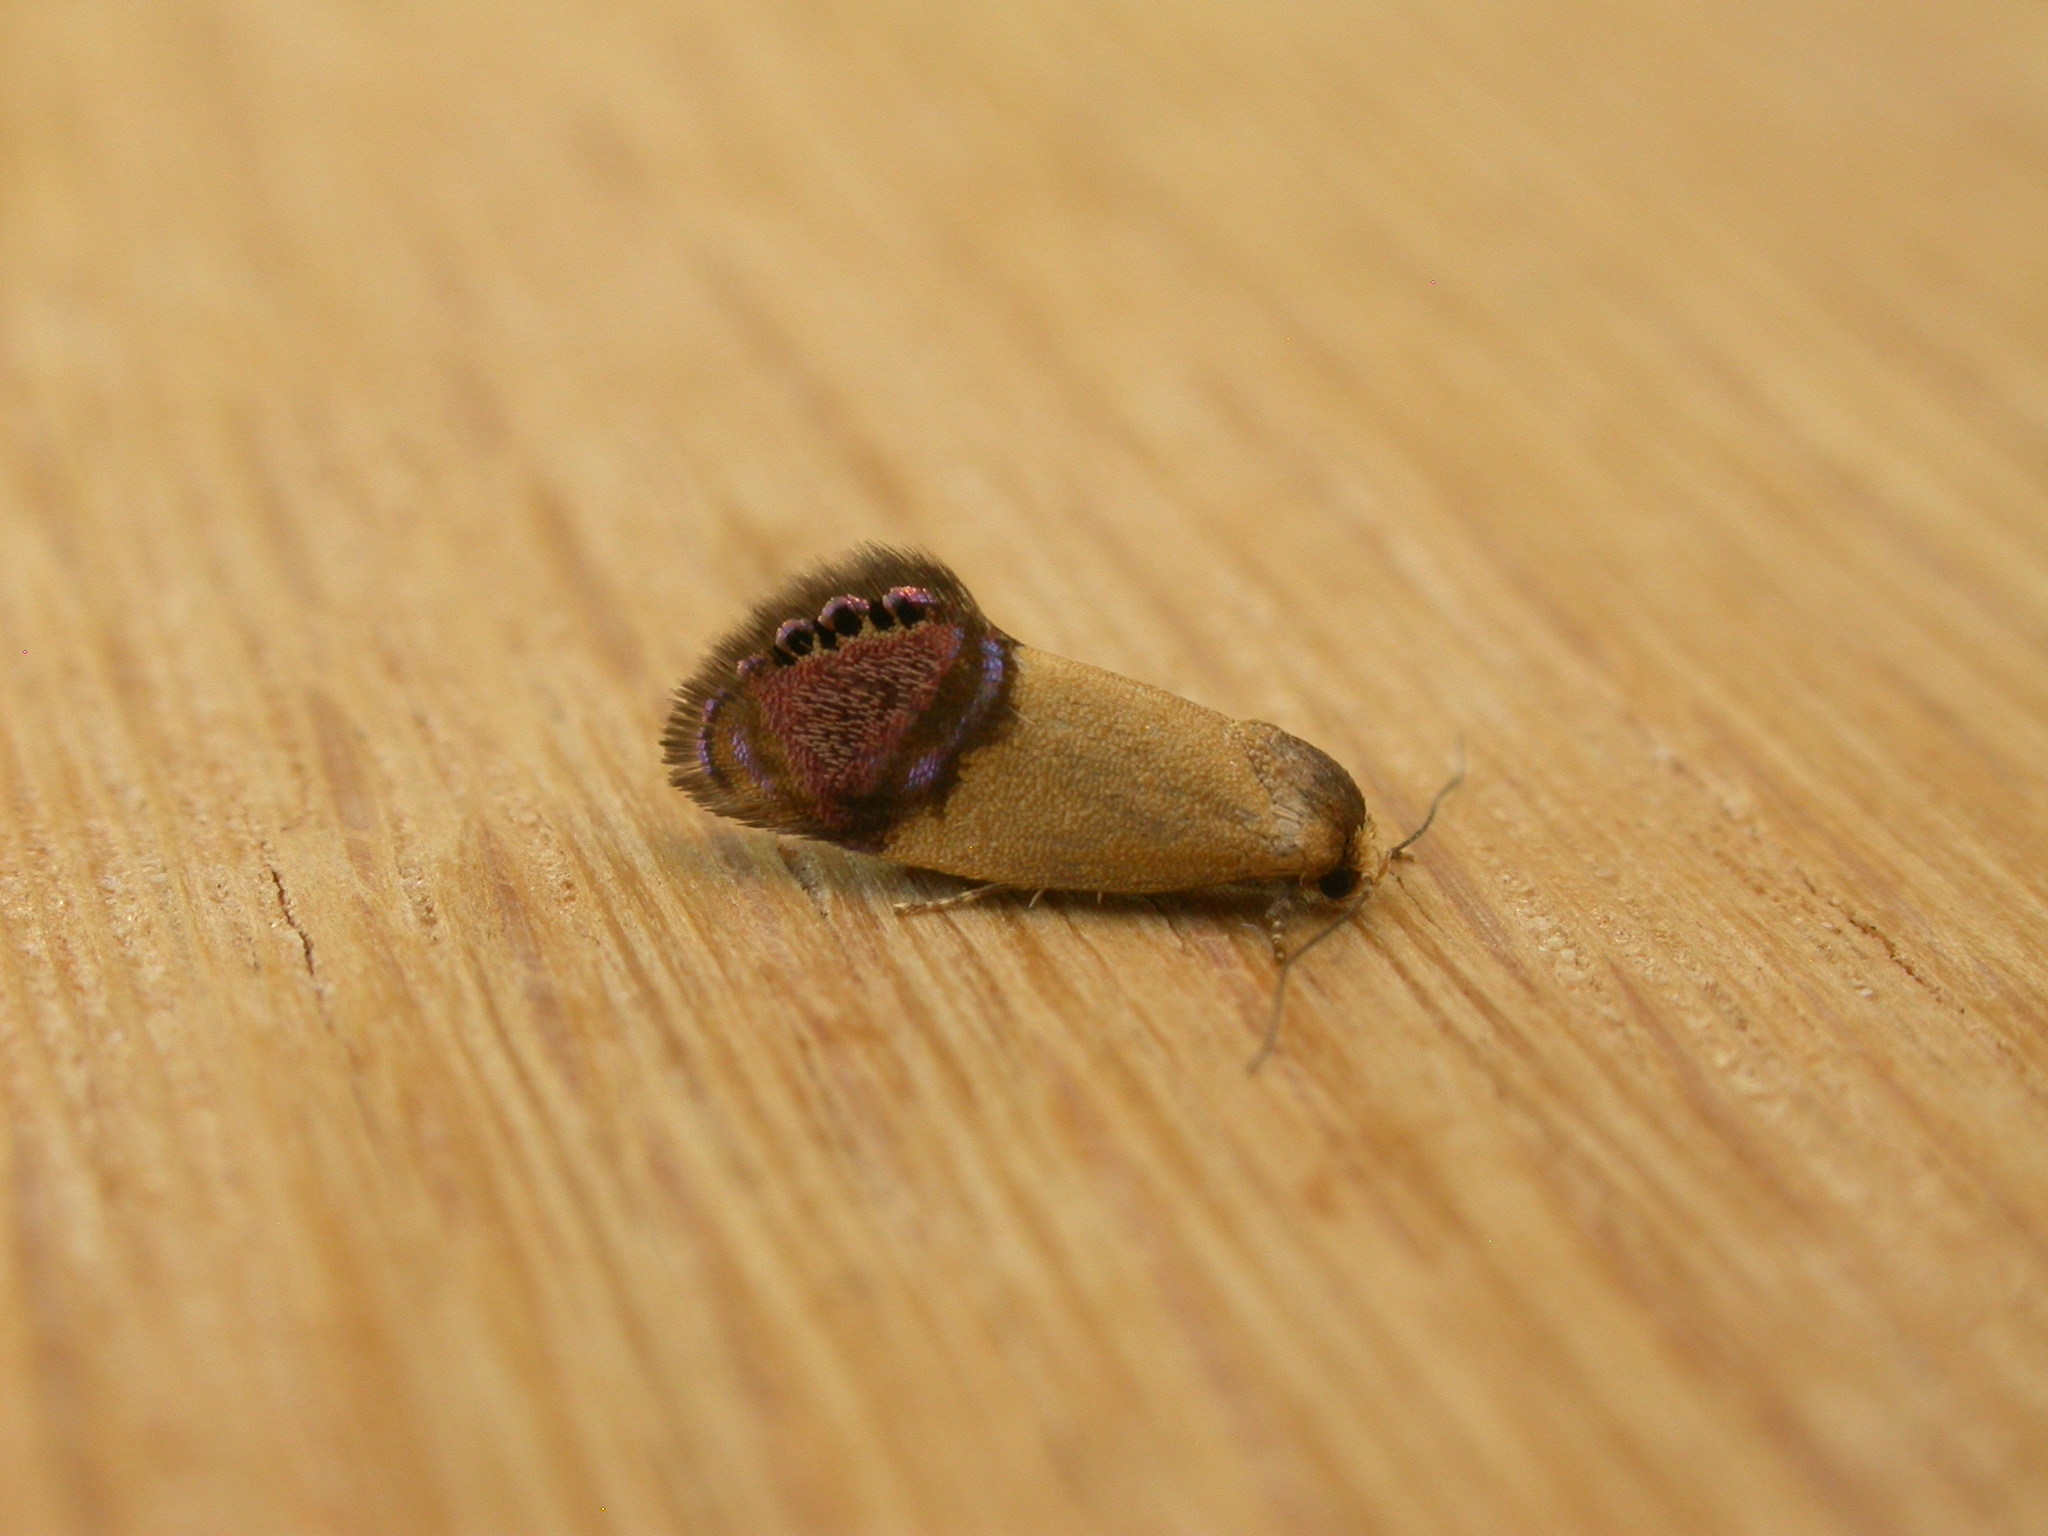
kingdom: Animalia
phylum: Arthropoda
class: Insecta
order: Lepidoptera
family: Depressariidae
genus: Eupselia
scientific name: Eupselia satrapella
